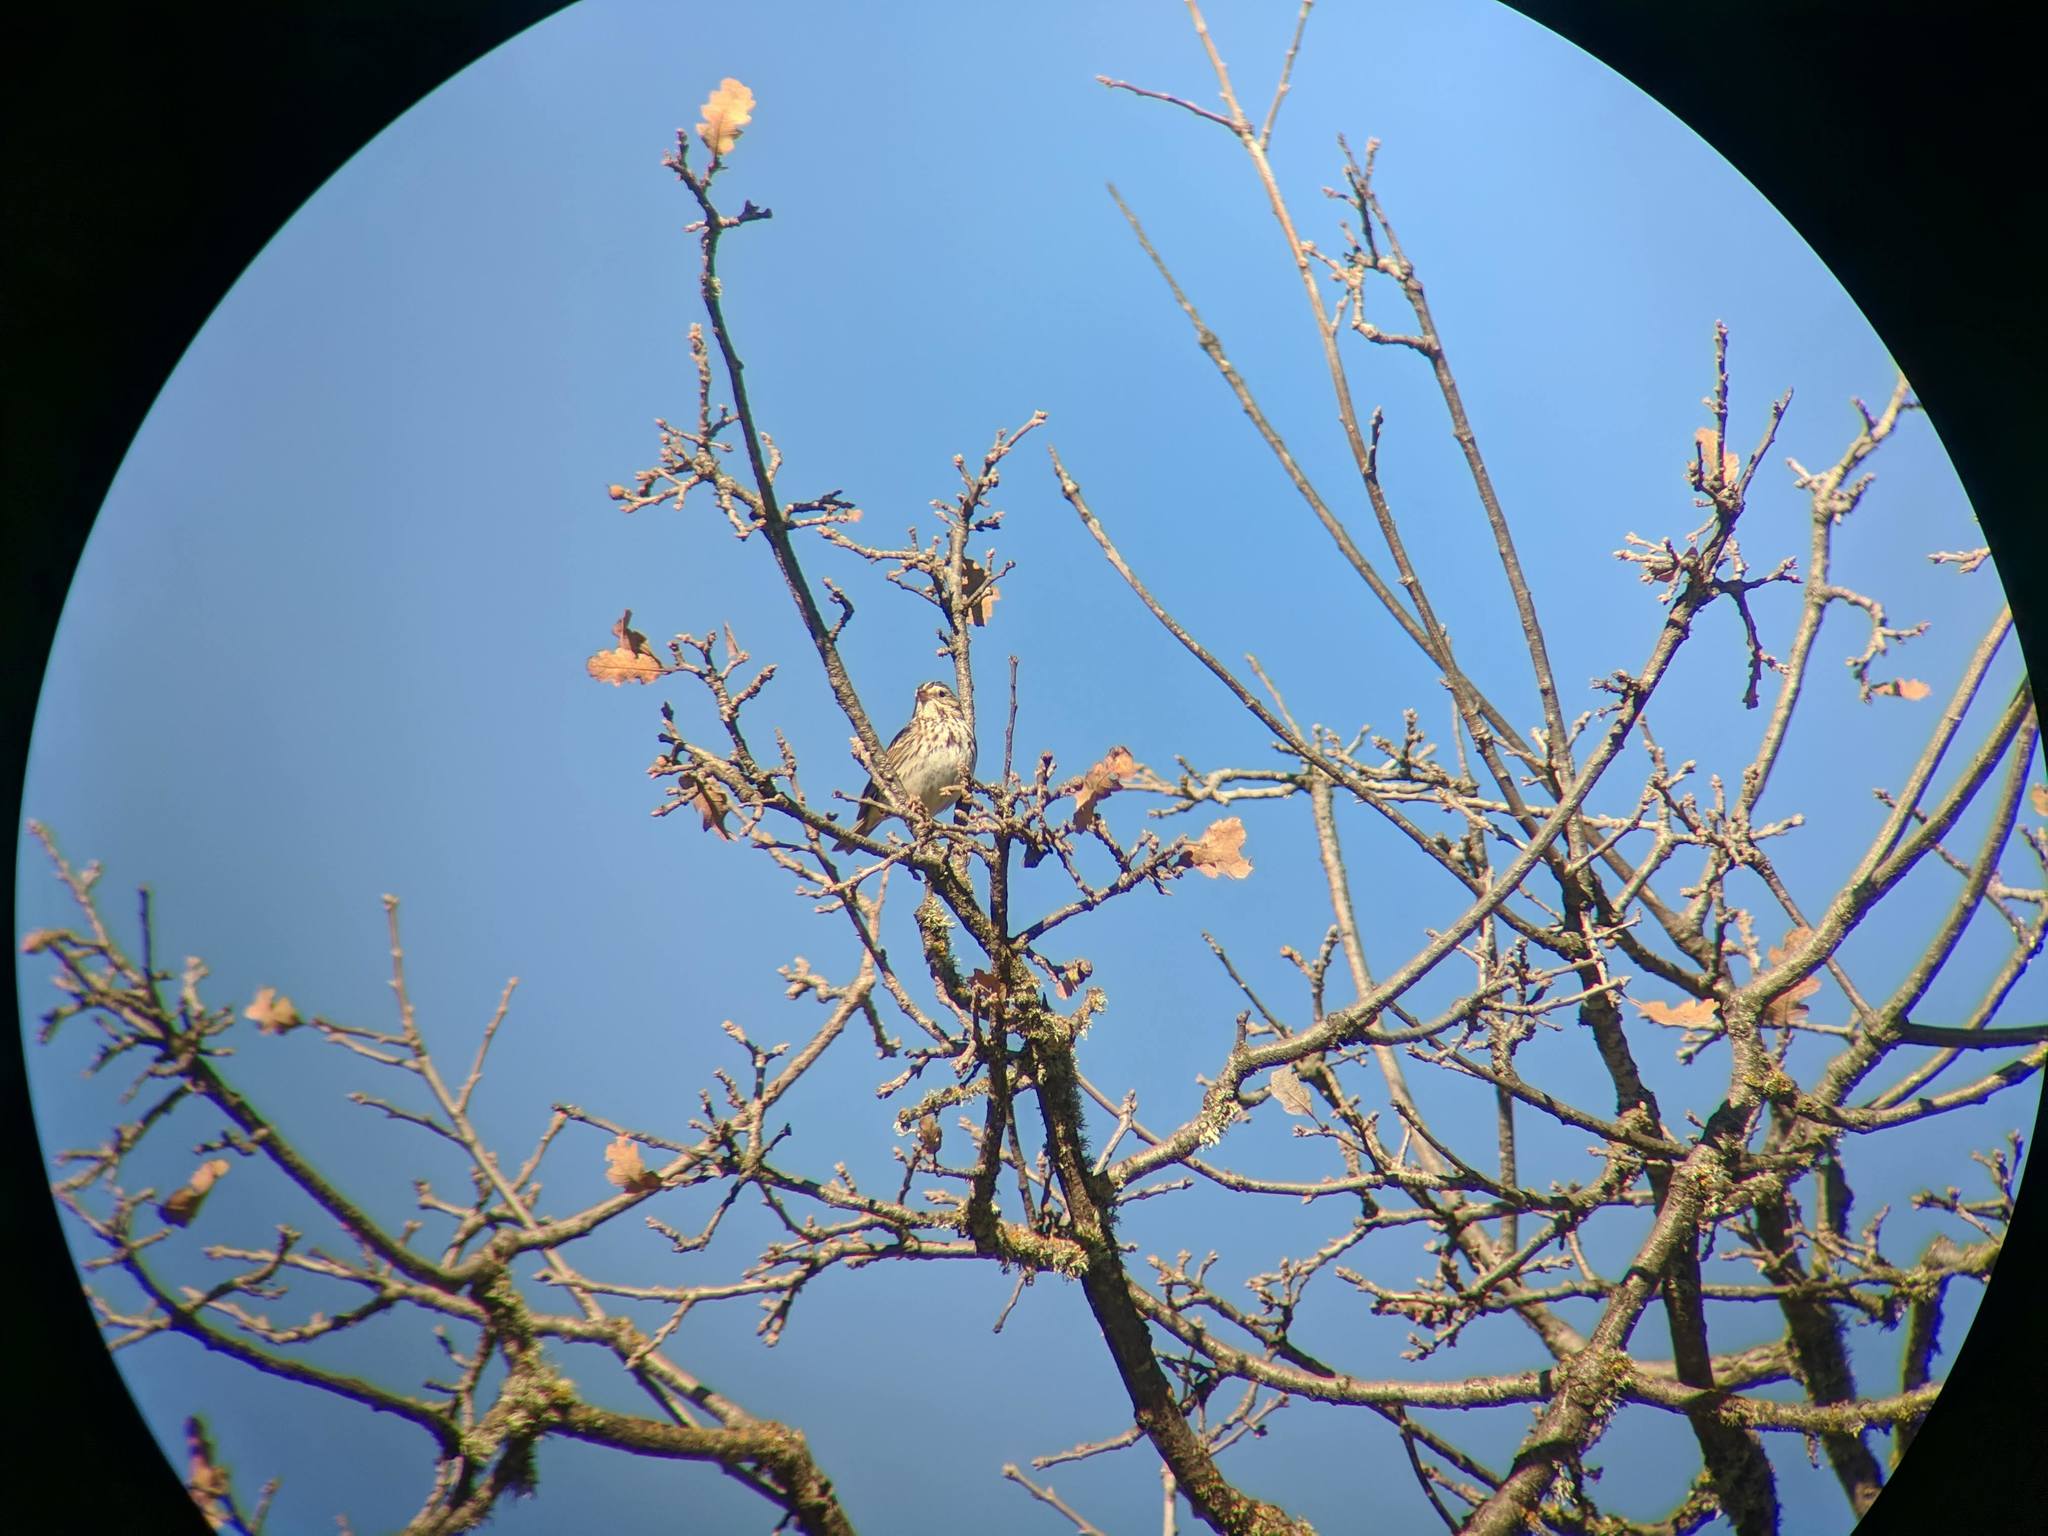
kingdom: Animalia
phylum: Chordata
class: Aves
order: Passeriformes
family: Passerellidae
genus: Passerculus
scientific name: Passerculus sandwichensis
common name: Savannah sparrow
